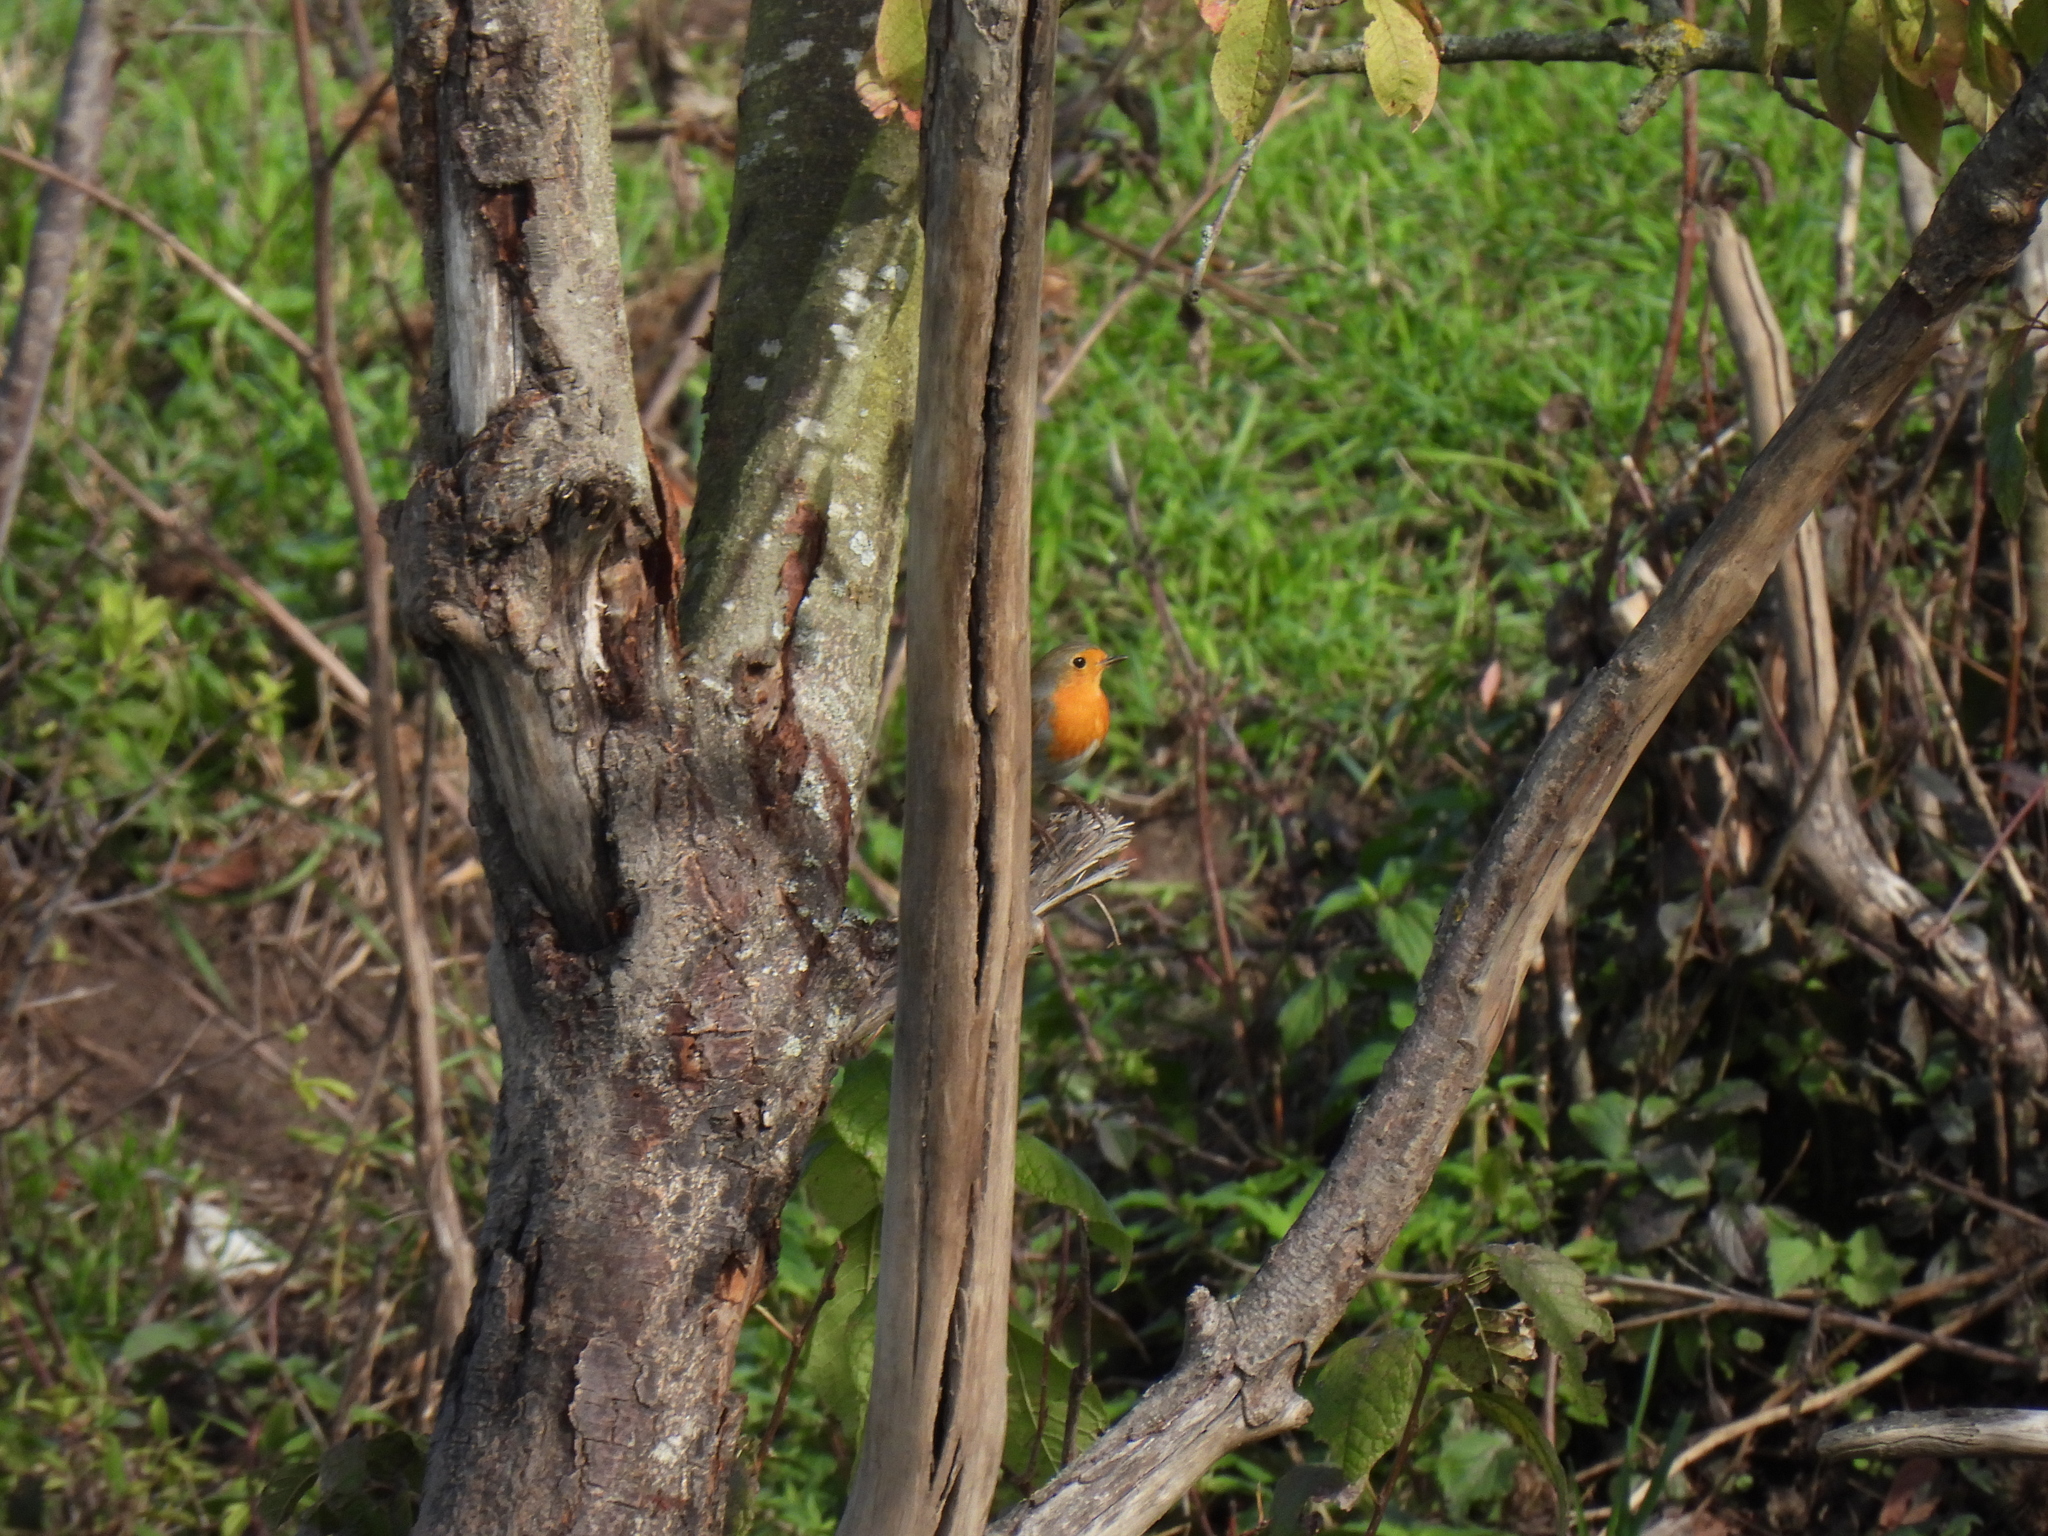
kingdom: Animalia
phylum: Chordata
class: Aves
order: Passeriformes
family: Muscicapidae
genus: Erithacus
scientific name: Erithacus rubecula
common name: European robin
